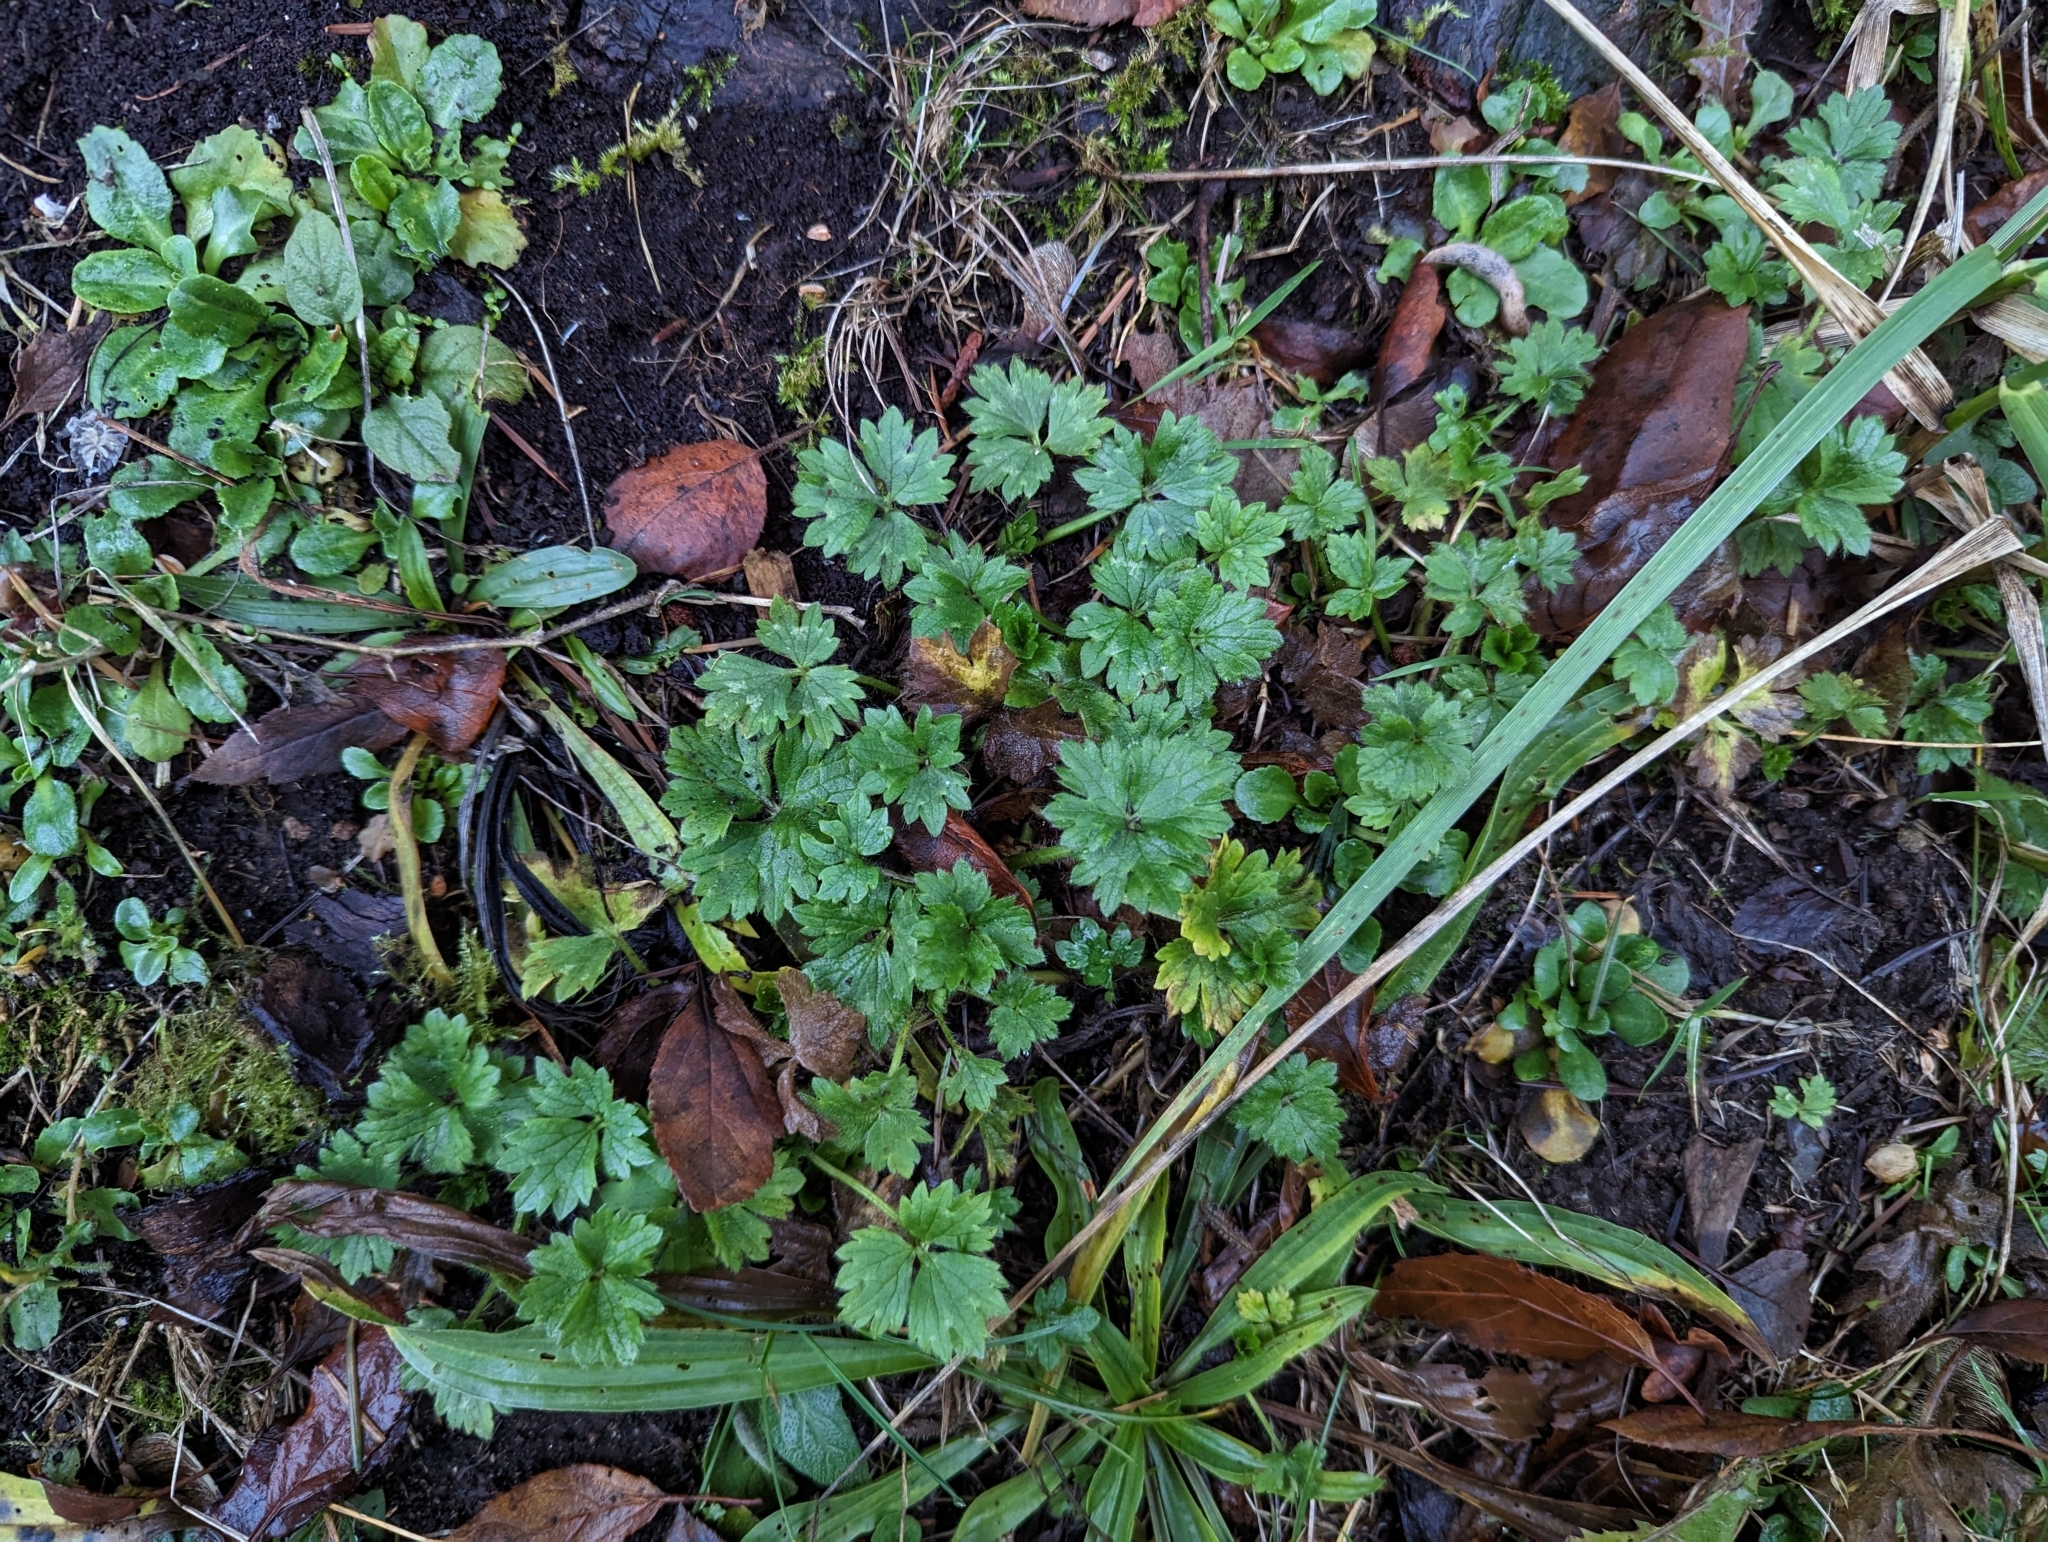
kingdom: Plantae
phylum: Tracheophyta
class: Magnoliopsida
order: Ranunculales
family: Ranunculaceae
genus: Ranunculus
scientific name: Ranunculus repens
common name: Creeping buttercup
